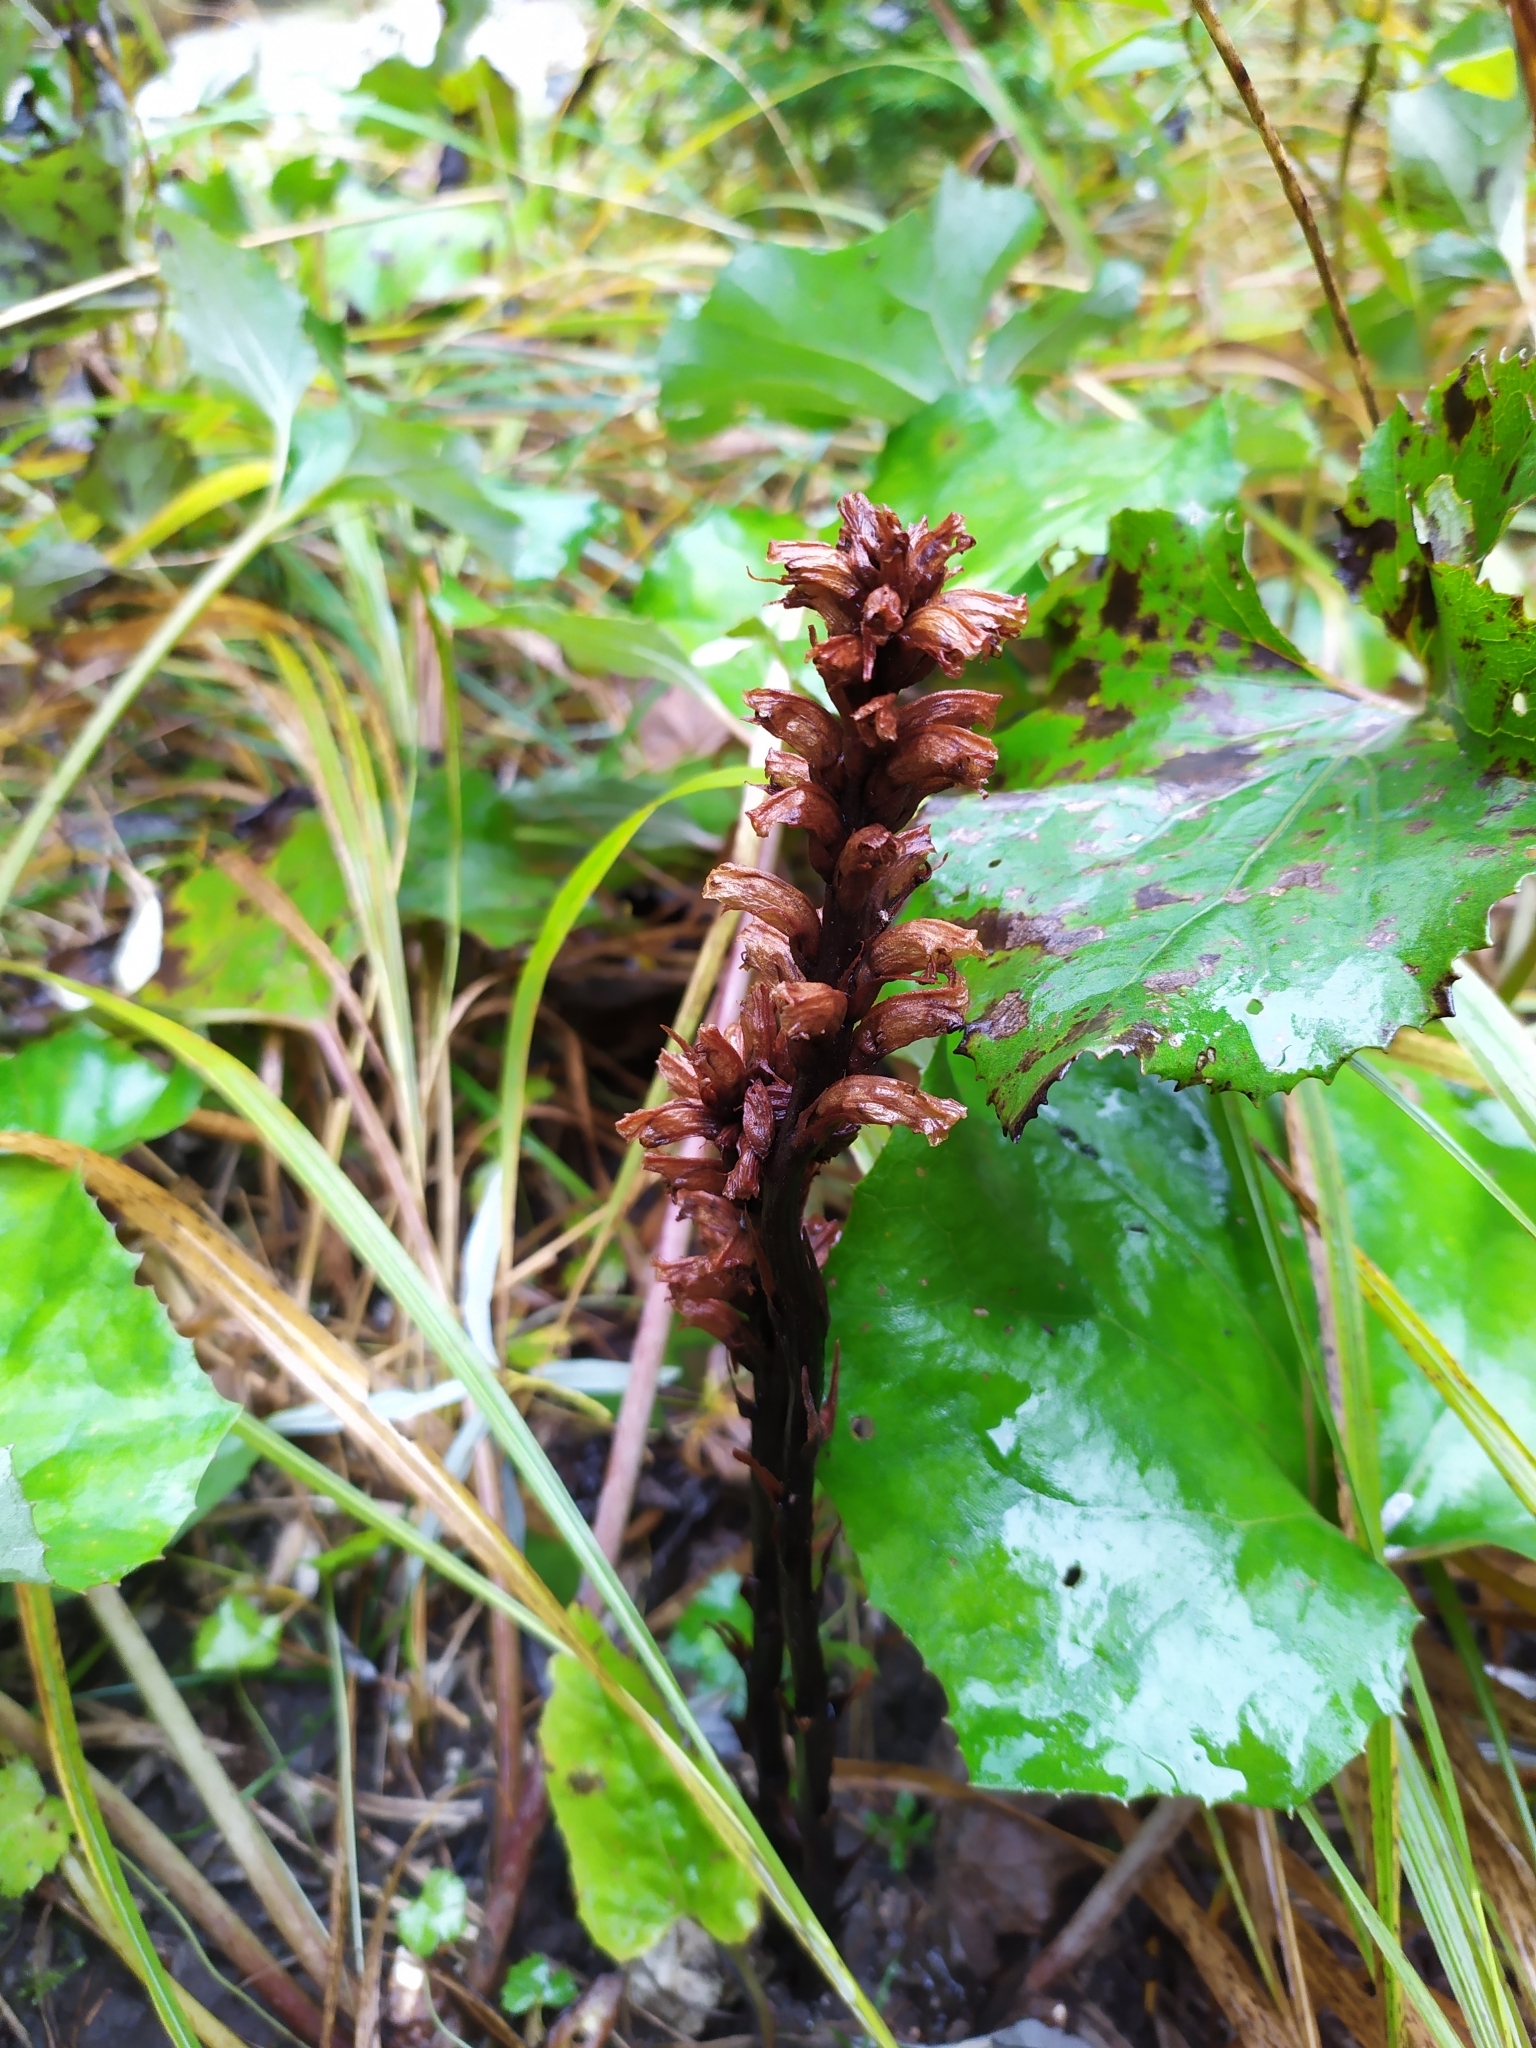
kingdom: Plantae
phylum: Tracheophyta
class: Magnoliopsida
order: Lamiales
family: Orobanchaceae
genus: Orobanche
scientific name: Orobanche flava
